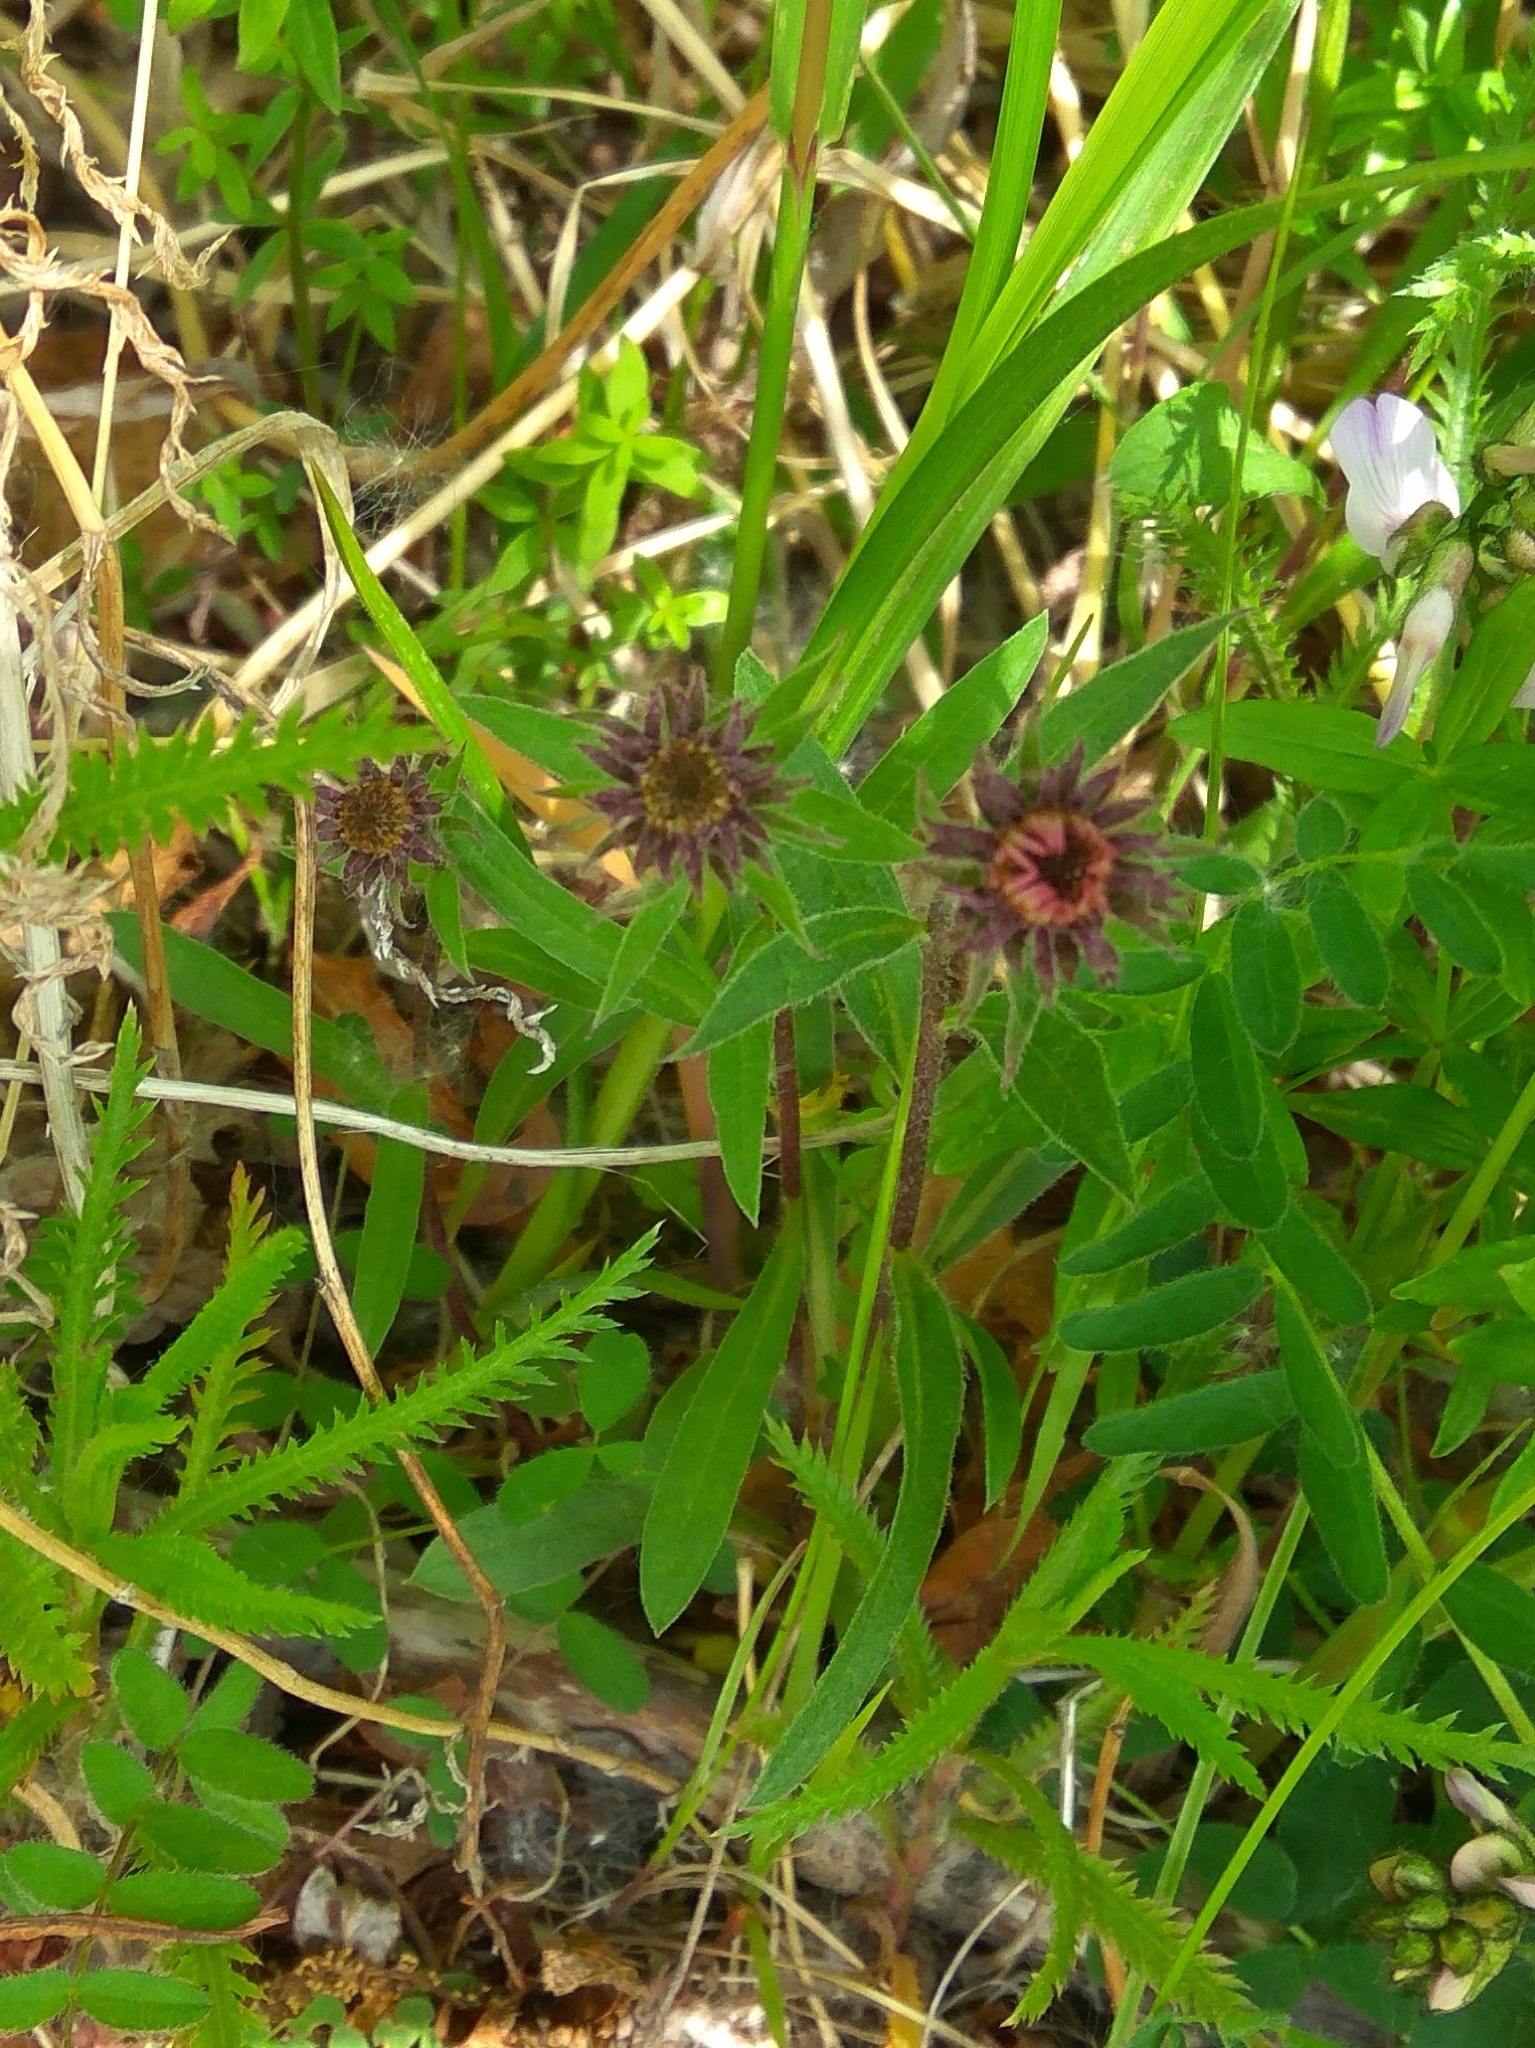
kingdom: Plantae
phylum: Tracheophyta
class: Magnoliopsida
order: Asterales
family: Asteraceae
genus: Eurybia
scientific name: Eurybia sibirica
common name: Arctic aster
